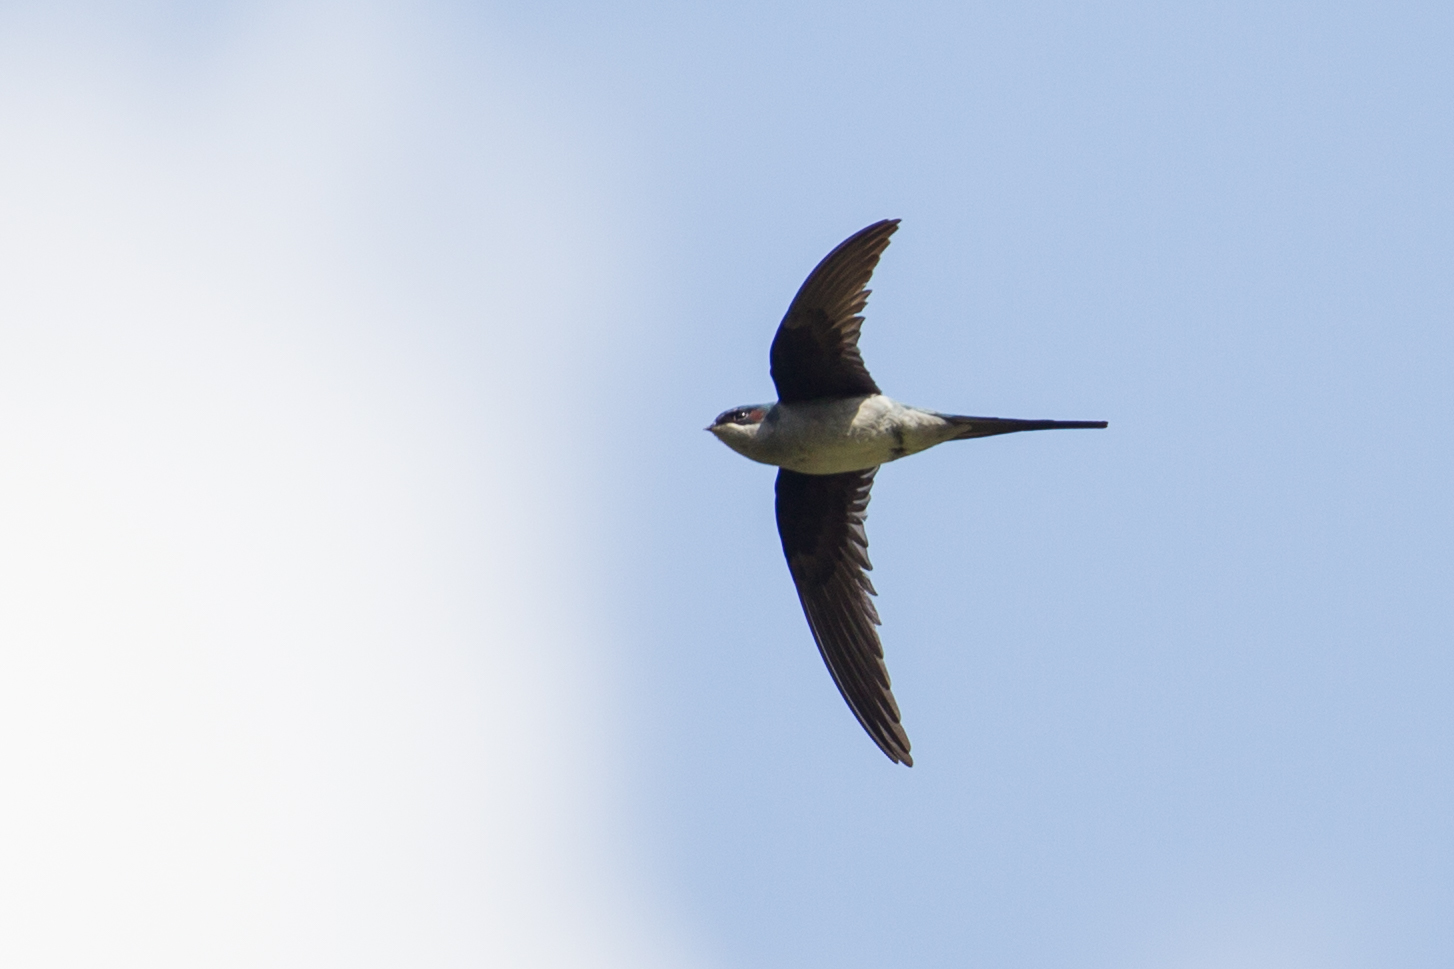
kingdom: Animalia
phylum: Chordata
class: Aves
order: Apodiformes
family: Hemiprocnidae
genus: Hemiprocne
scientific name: Hemiprocne longipennis
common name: Grey-rumped treeswift
